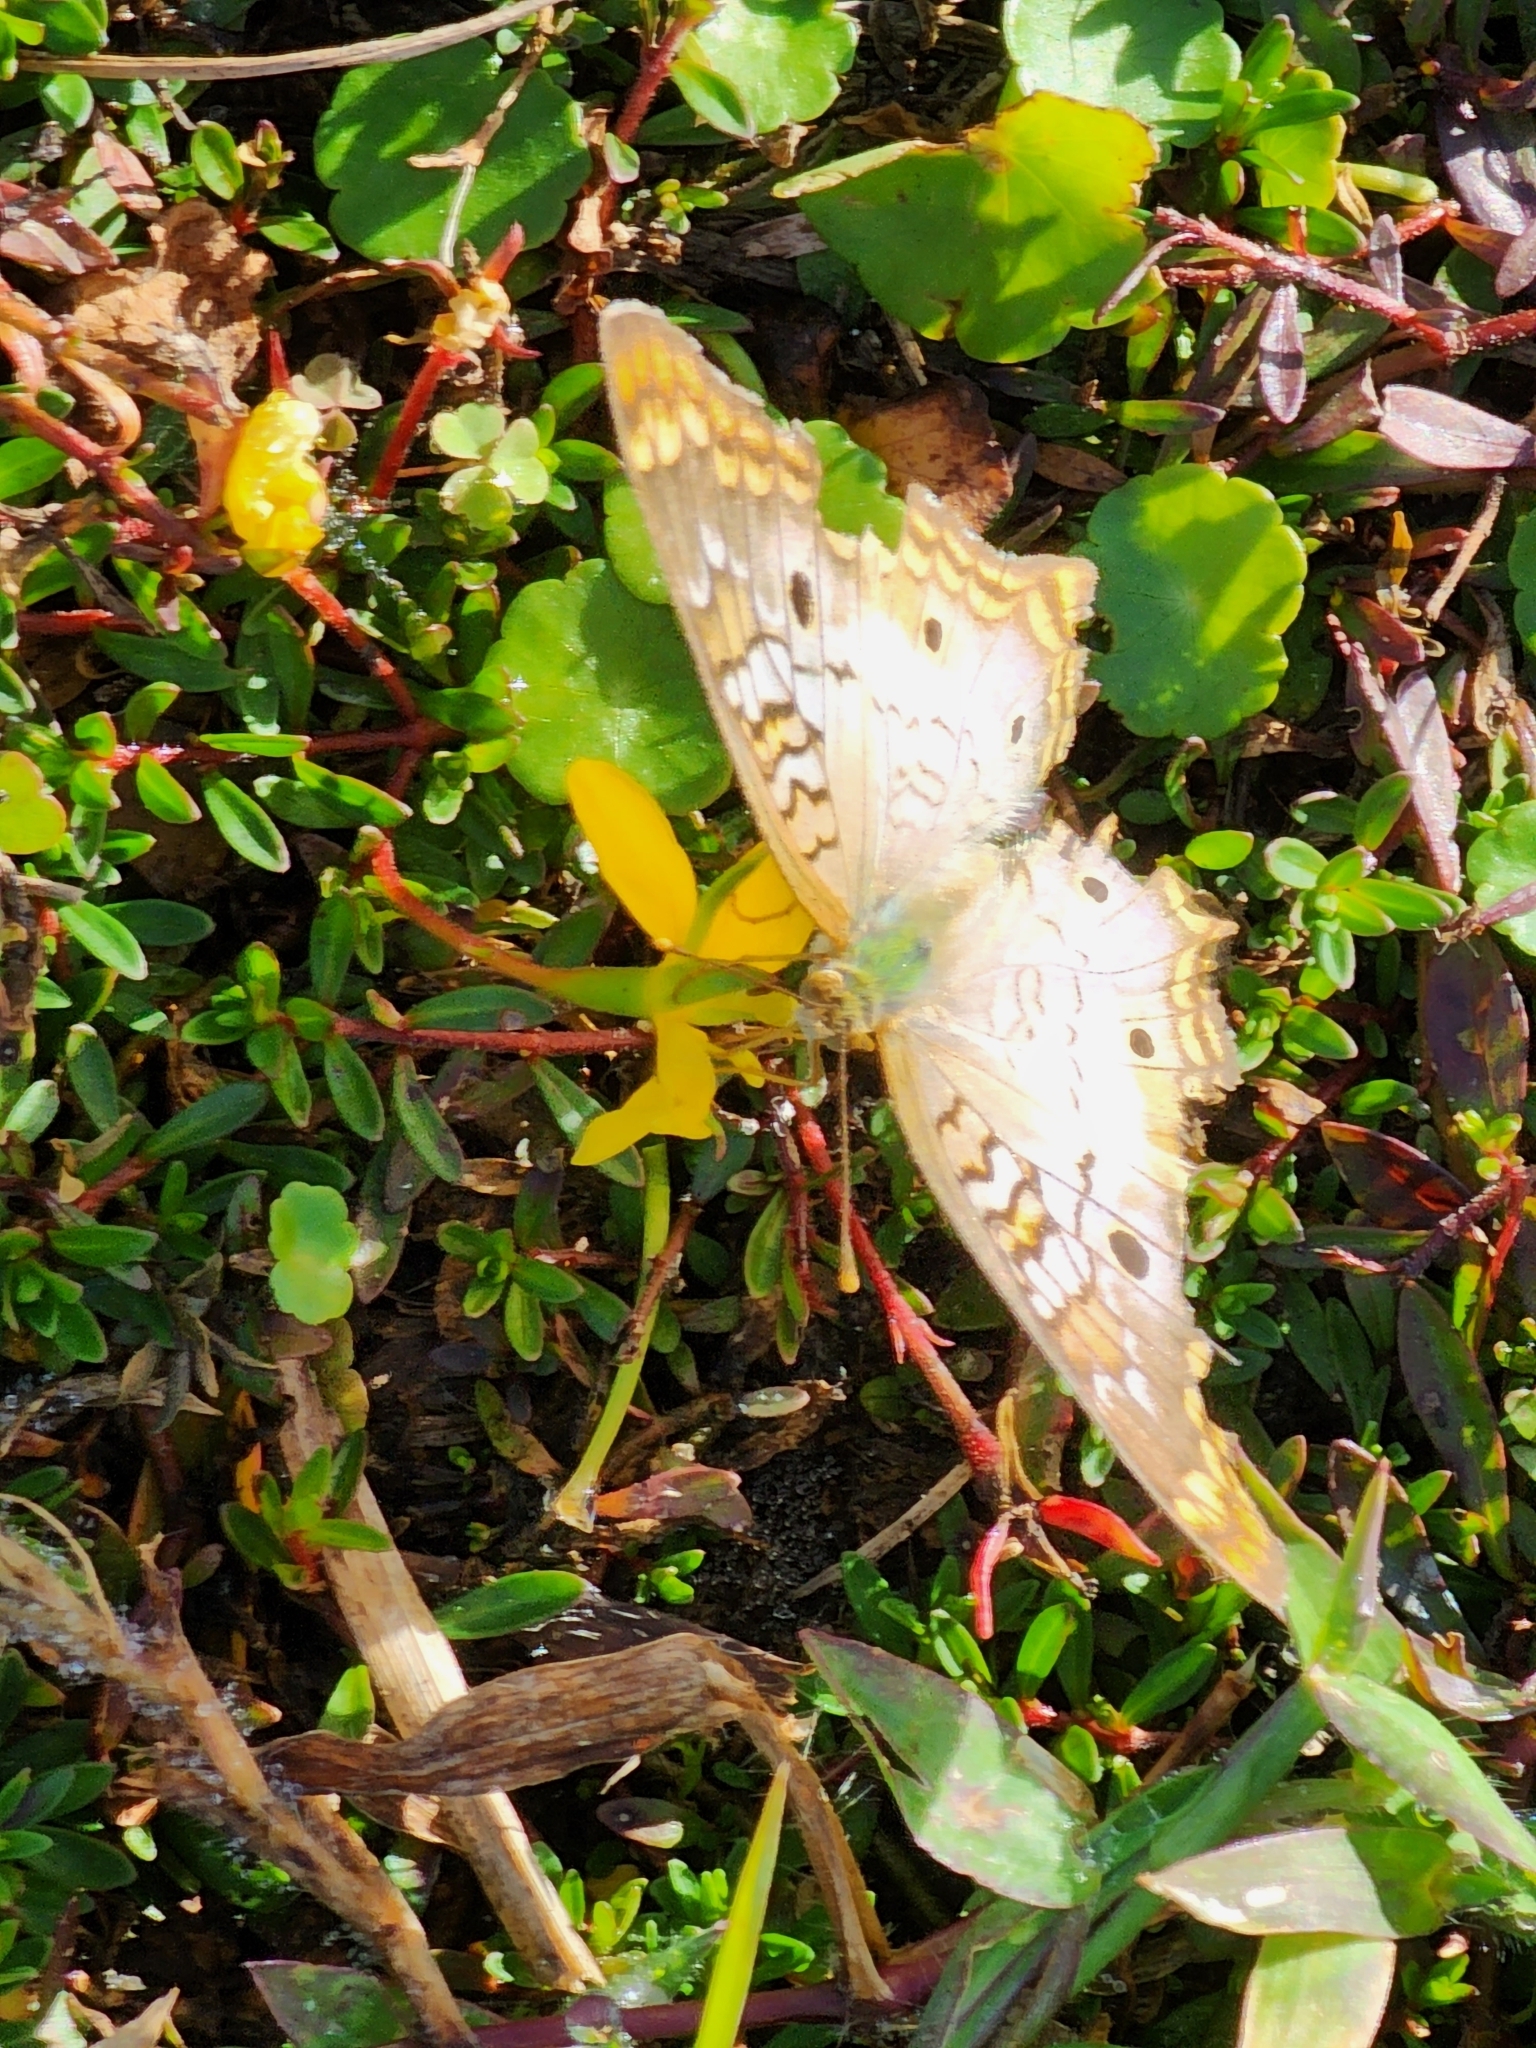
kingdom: Animalia
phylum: Arthropoda
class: Insecta
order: Lepidoptera
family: Nymphalidae
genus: Anartia
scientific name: Anartia jatrophae
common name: White peacock
